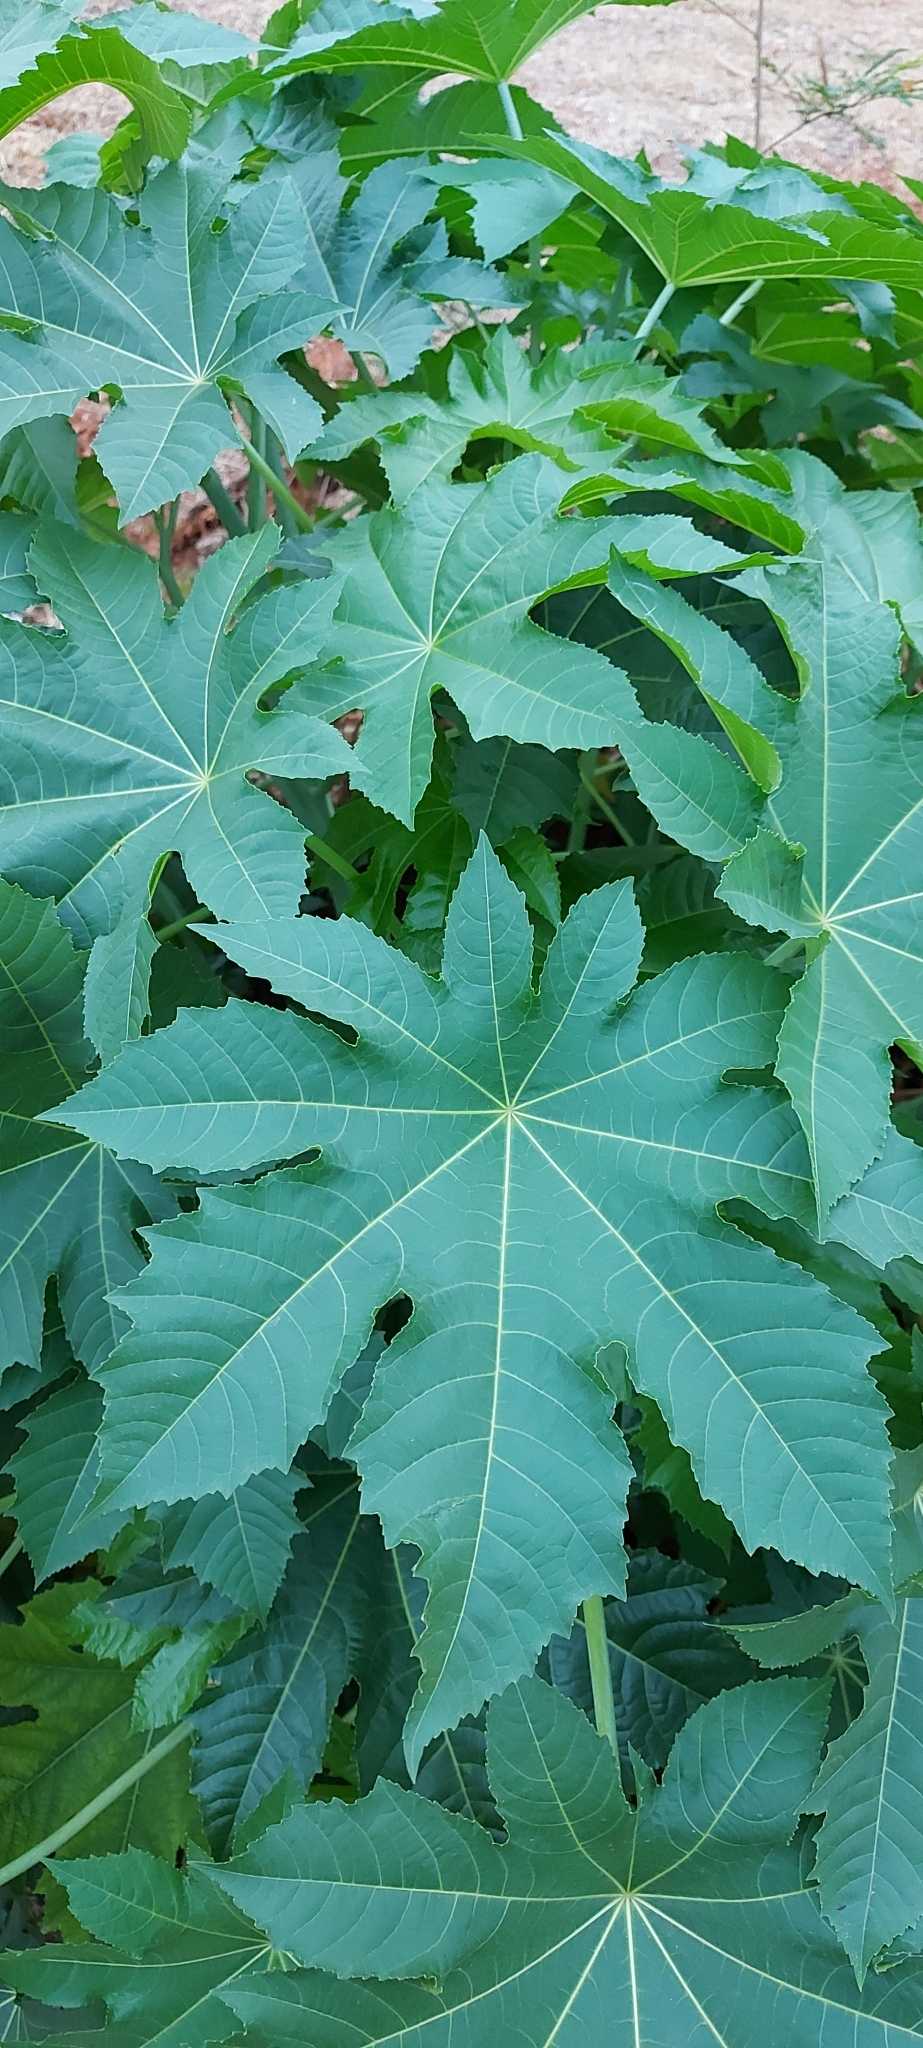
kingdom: Plantae
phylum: Tracheophyta
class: Magnoliopsida
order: Malpighiales
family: Euphorbiaceae
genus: Ricinus
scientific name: Ricinus communis
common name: Castor-oil-plant
